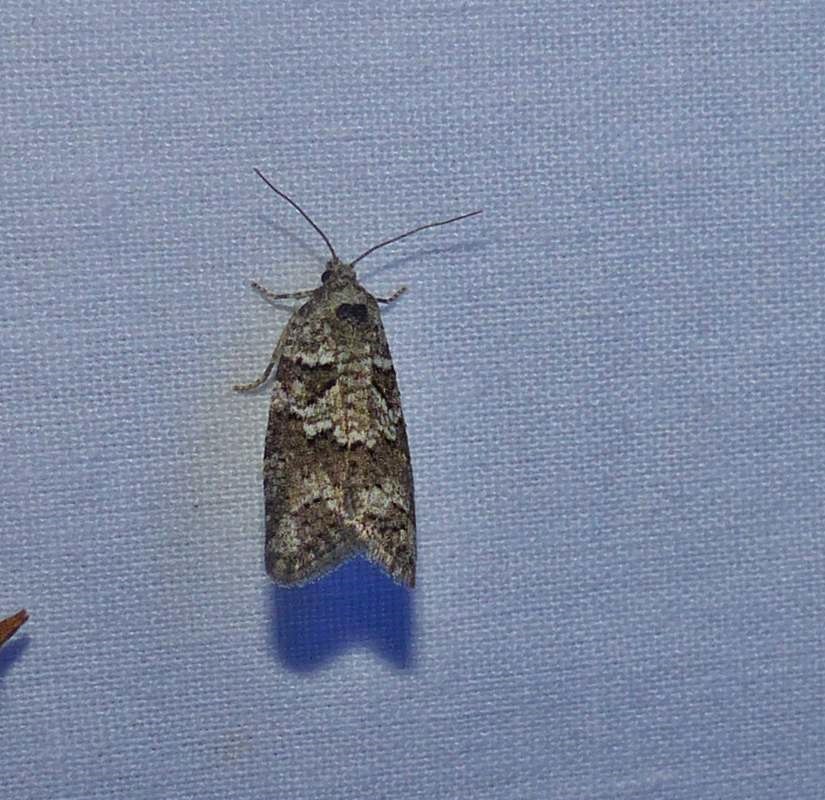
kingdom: Animalia
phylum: Arthropoda
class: Insecta
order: Lepidoptera
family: Tortricidae
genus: Cnephasia
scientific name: Cnephasia stephensiana
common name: Grey tortrix
